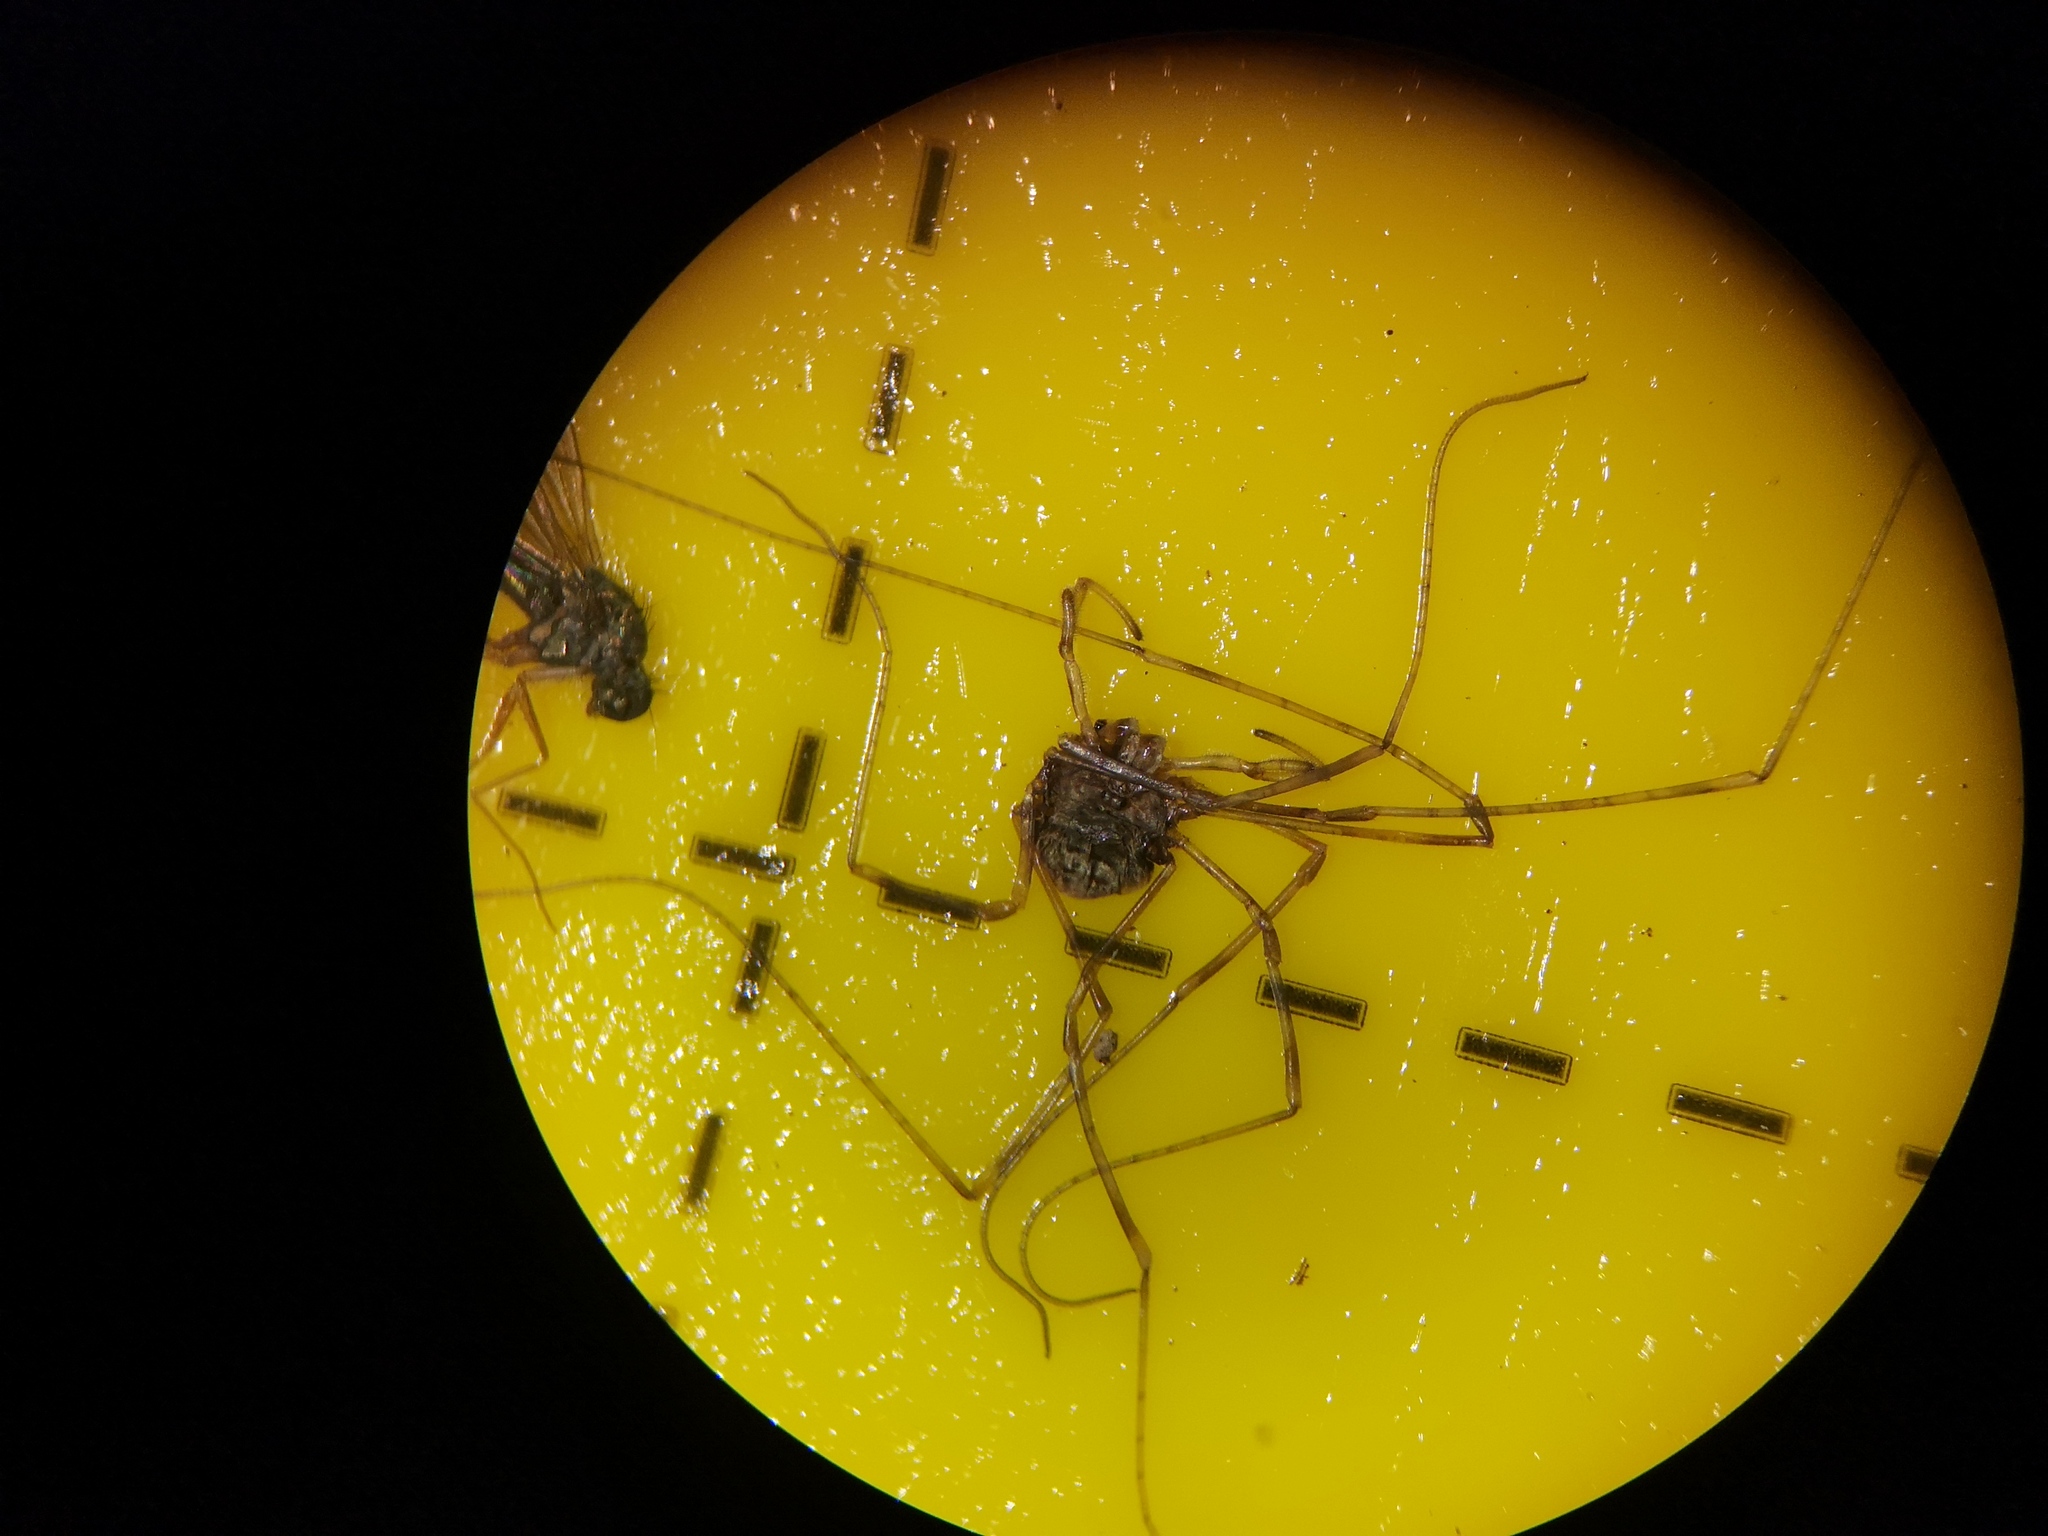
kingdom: Animalia
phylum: Arthropoda
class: Arachnida
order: Opiliones
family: Phalangiidae
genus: Dicranopalpus
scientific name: Dicranopalpus ramosus
